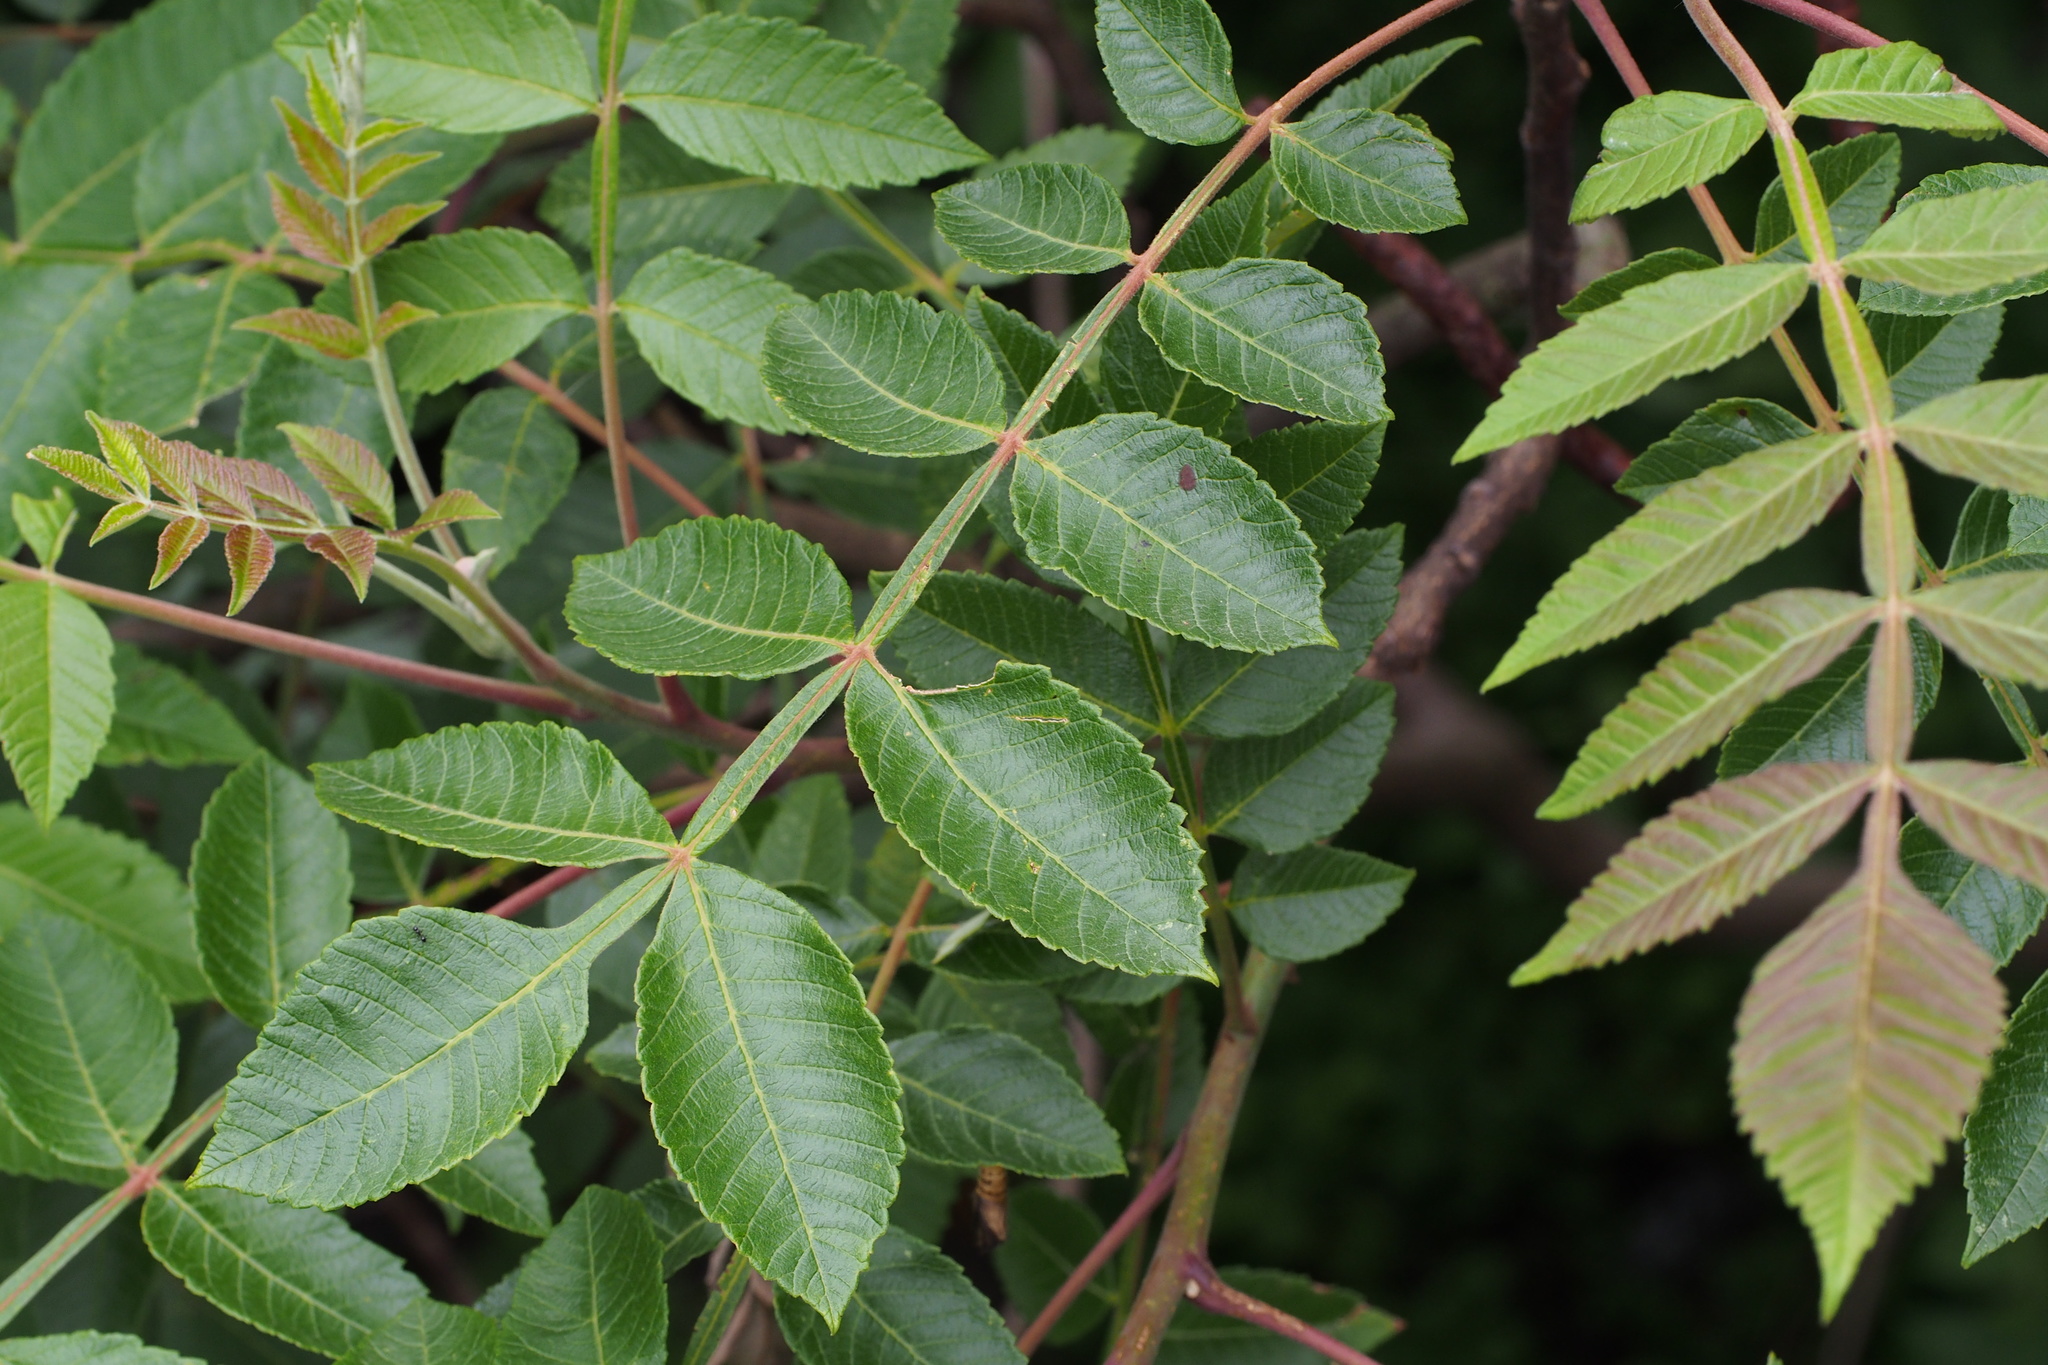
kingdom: Plantae
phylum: Tracheophyta
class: Magnoliopsida
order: Sapindales
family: Anacardiaceae
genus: Rhus
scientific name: Rhus chinensis
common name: Chinese gall
